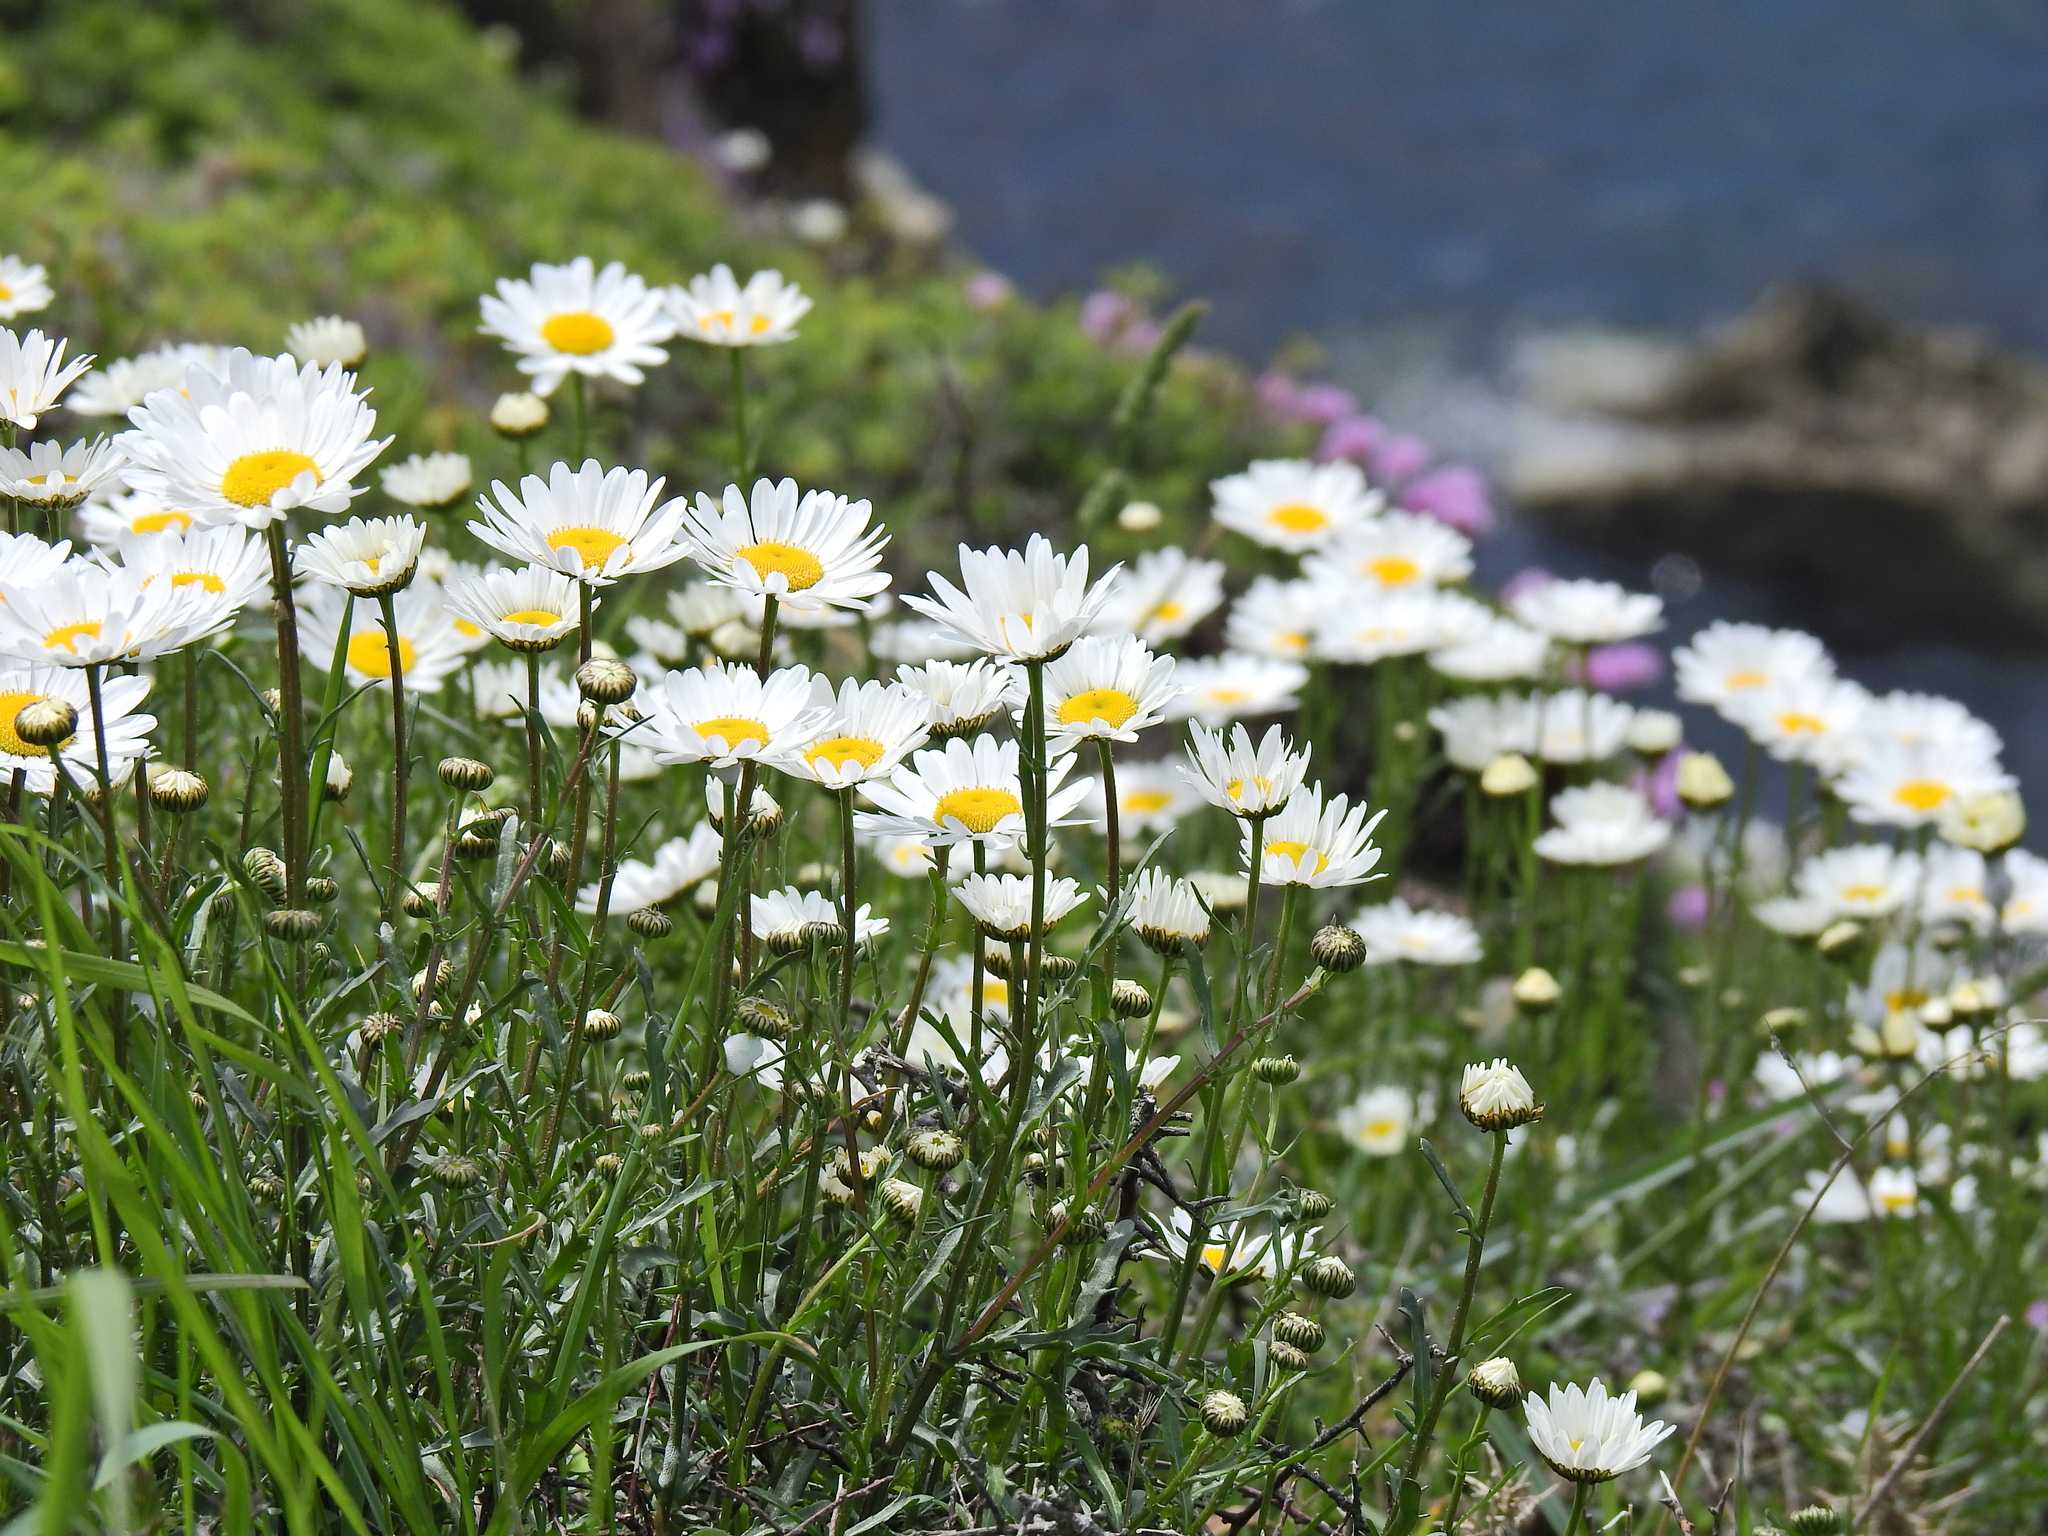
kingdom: Plantae
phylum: Tracheophyta
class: Magnoliopsida
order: Asterales
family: Asteraceae
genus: Leucanthemum
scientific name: Leucanthemum vulgare
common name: Oxeye daisy
